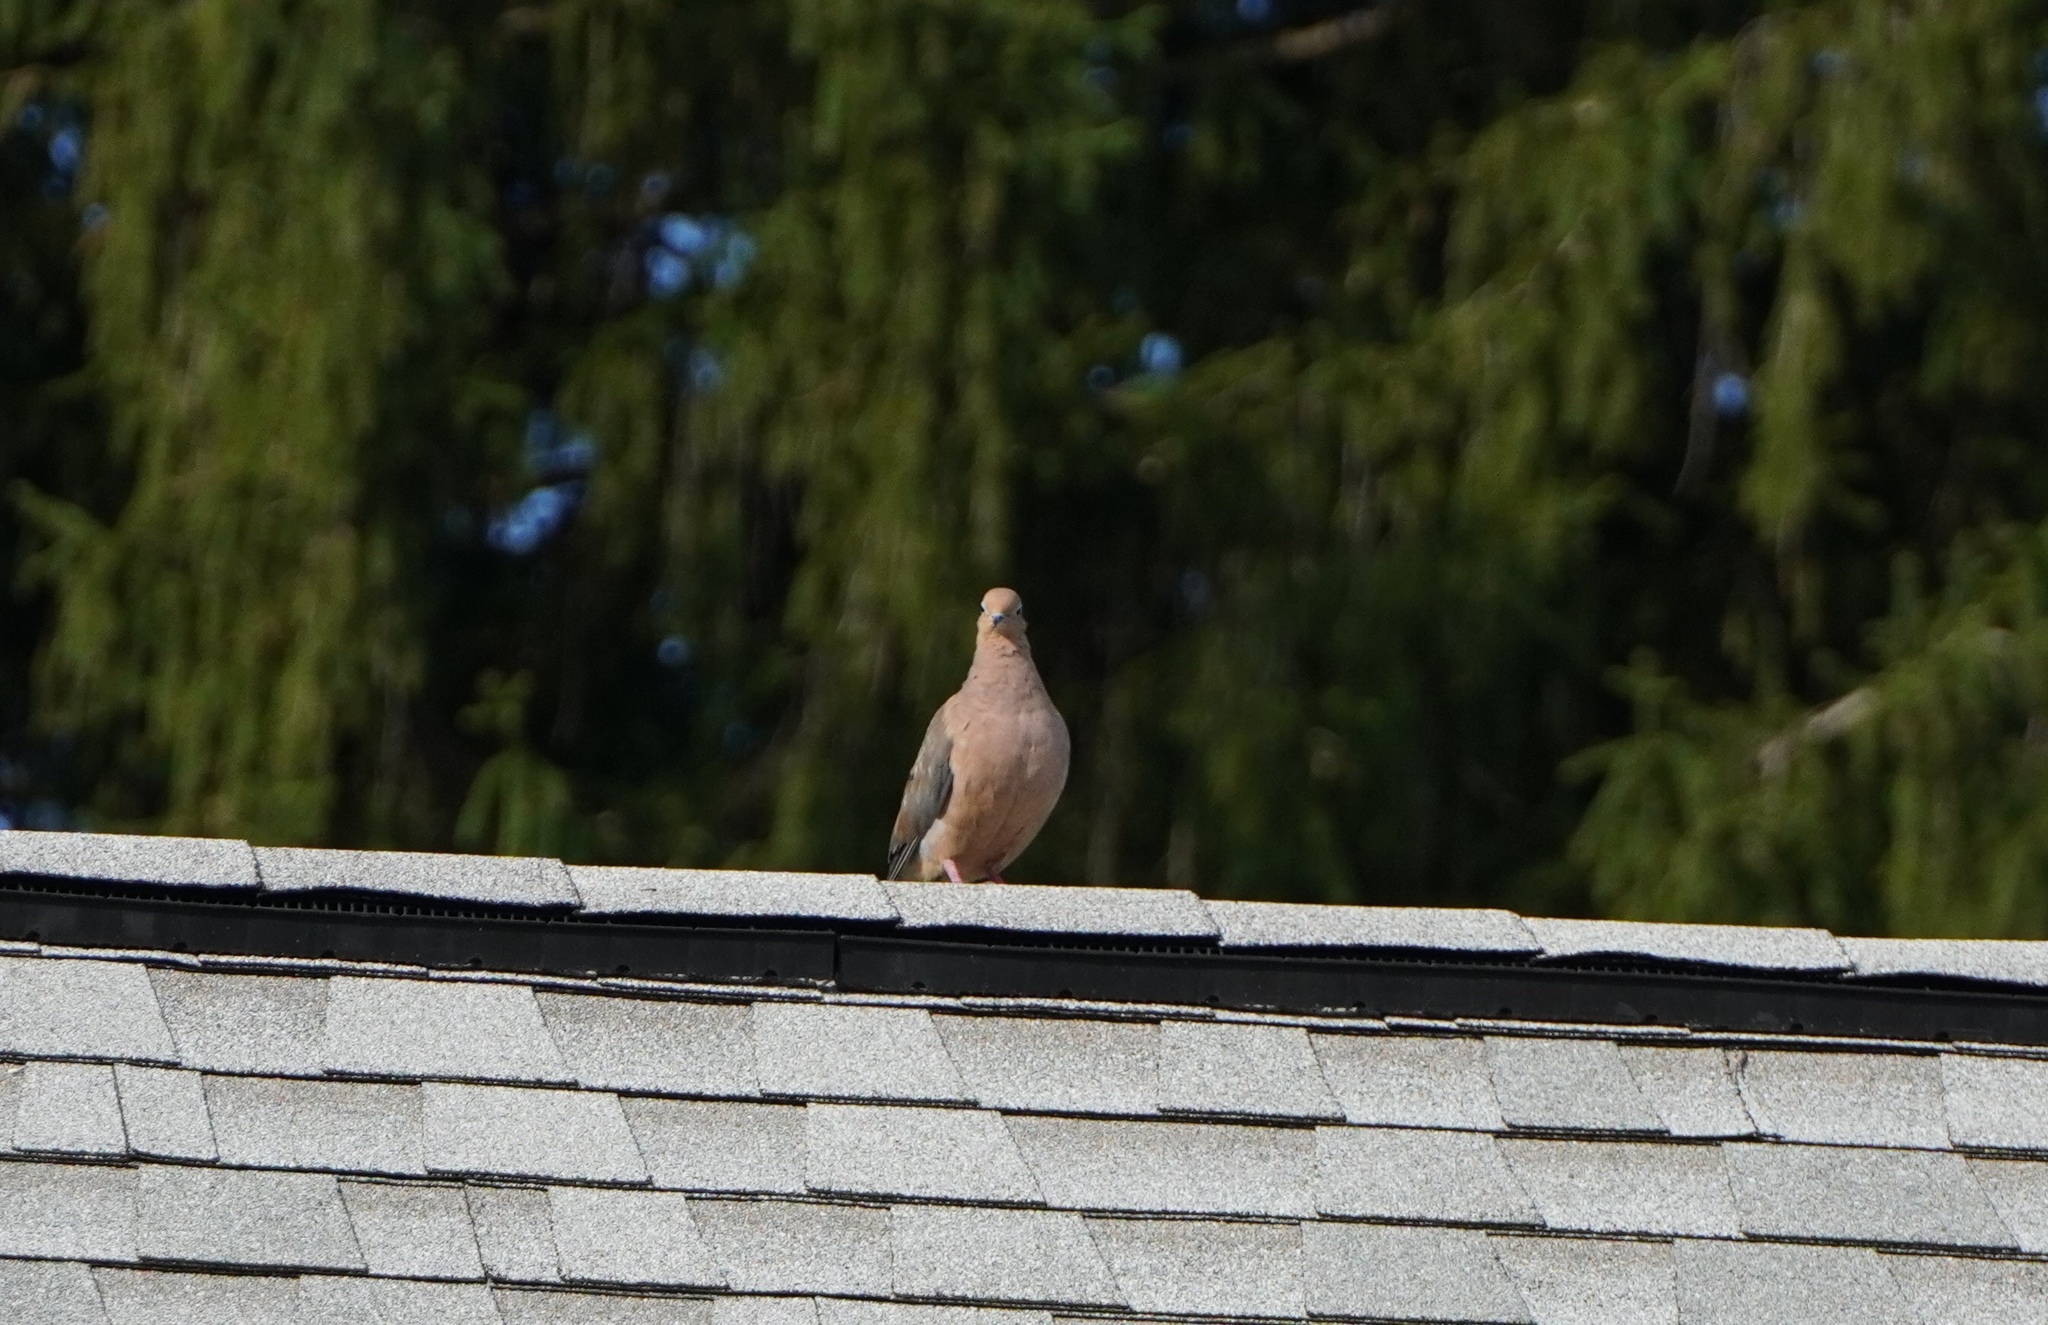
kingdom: Animalia
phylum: Chordata
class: Aves
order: Columbiformes
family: Columbidae
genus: Zenaida
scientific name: Zenaida macroura
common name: Mourning dove
